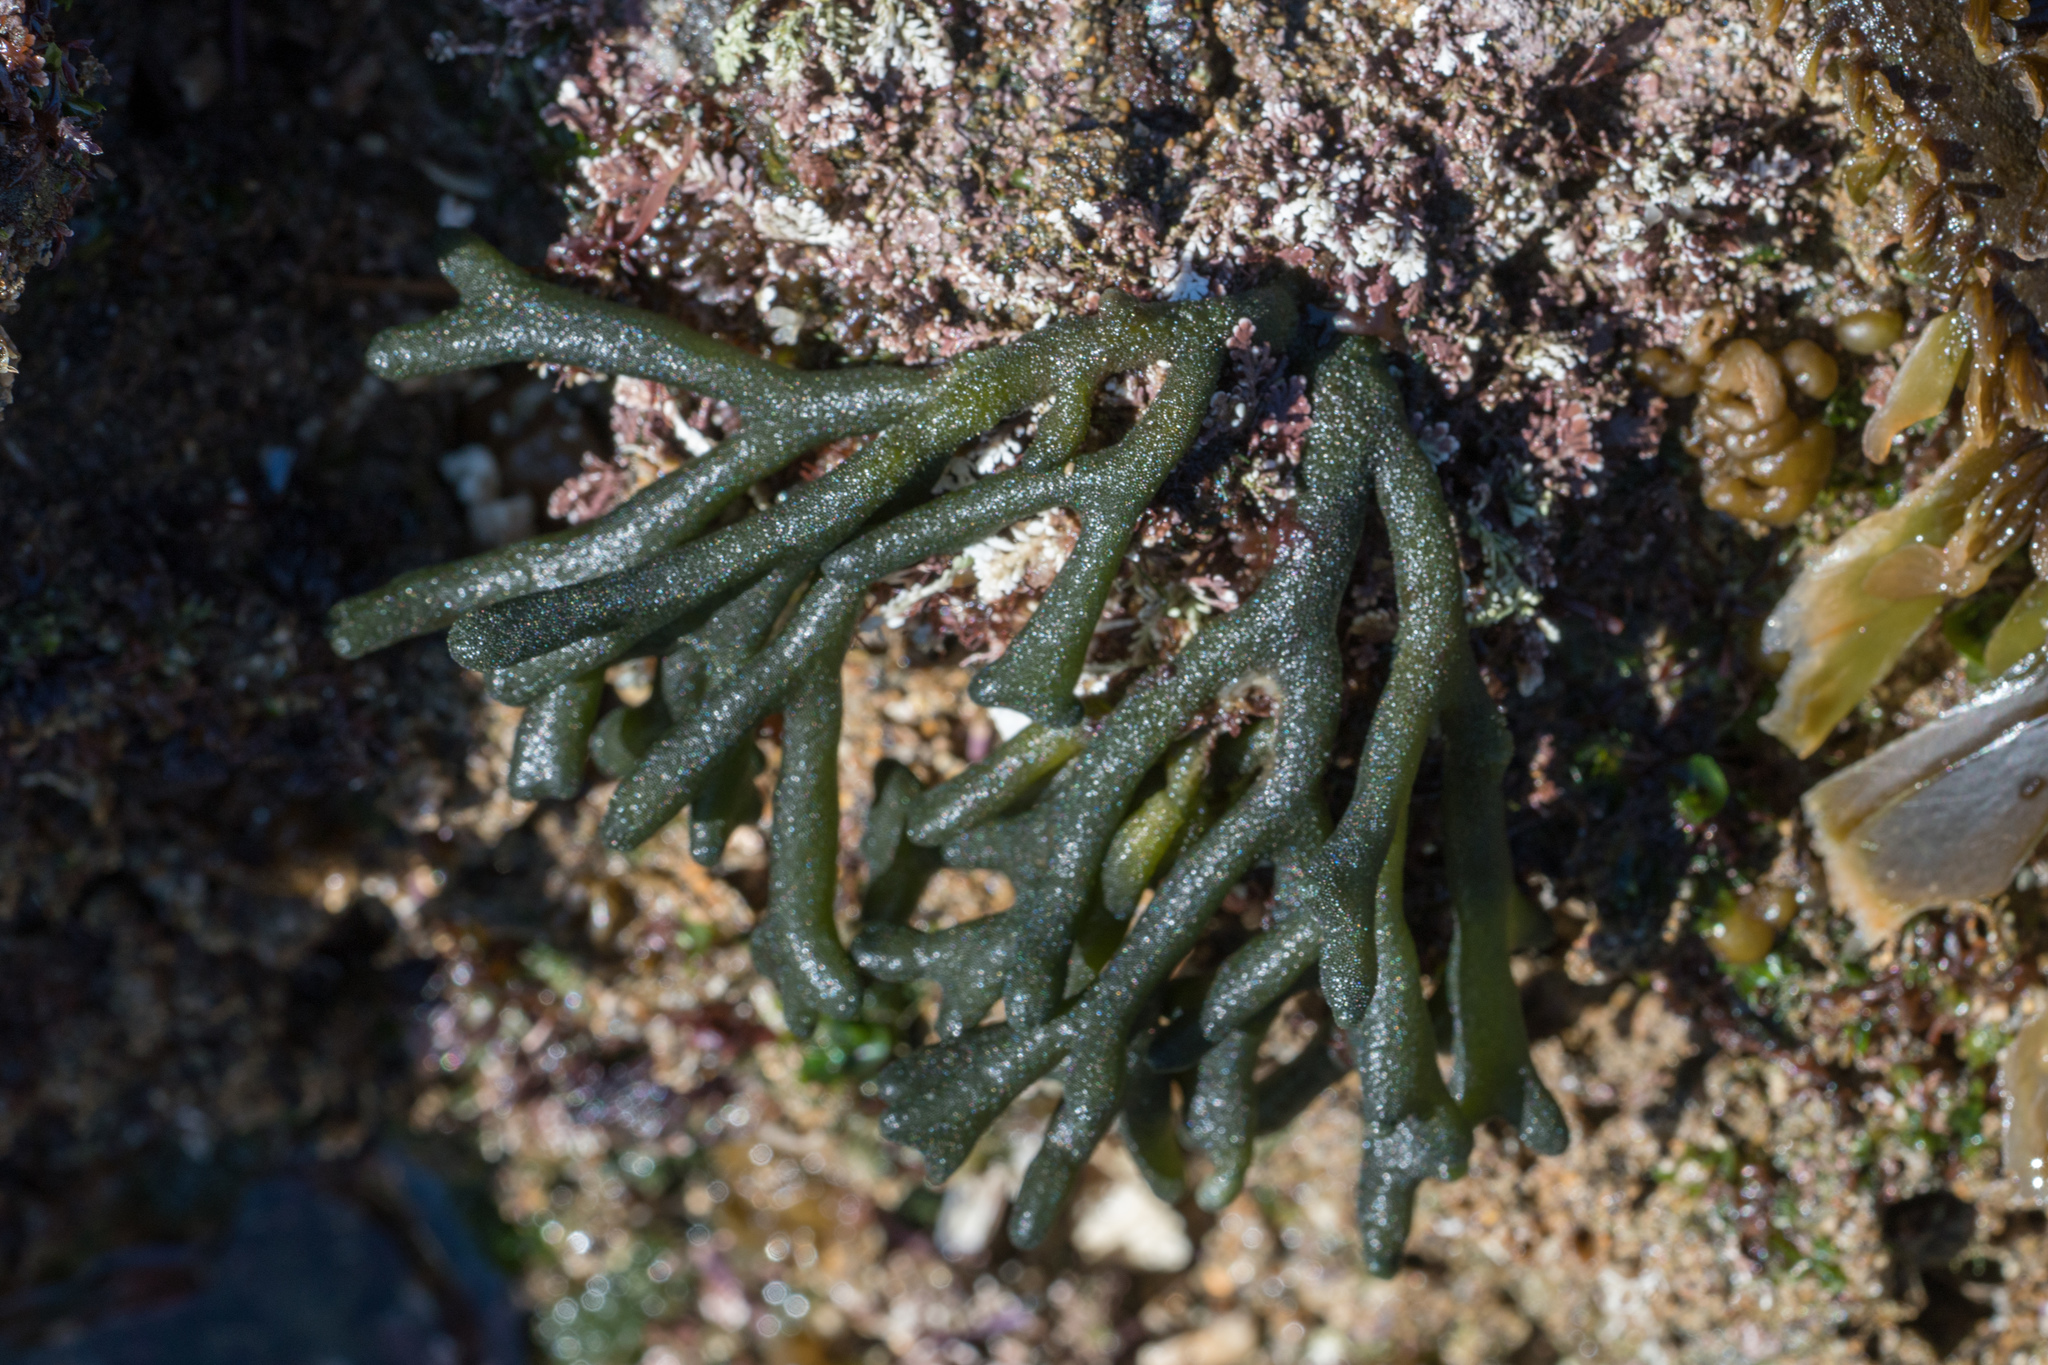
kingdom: Plantae
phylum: Chlorophyta
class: Ulvophyceae
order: Bryopsidales
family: Codiaceae
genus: Codium
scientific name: Codium fragile
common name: Dead man's fingers
